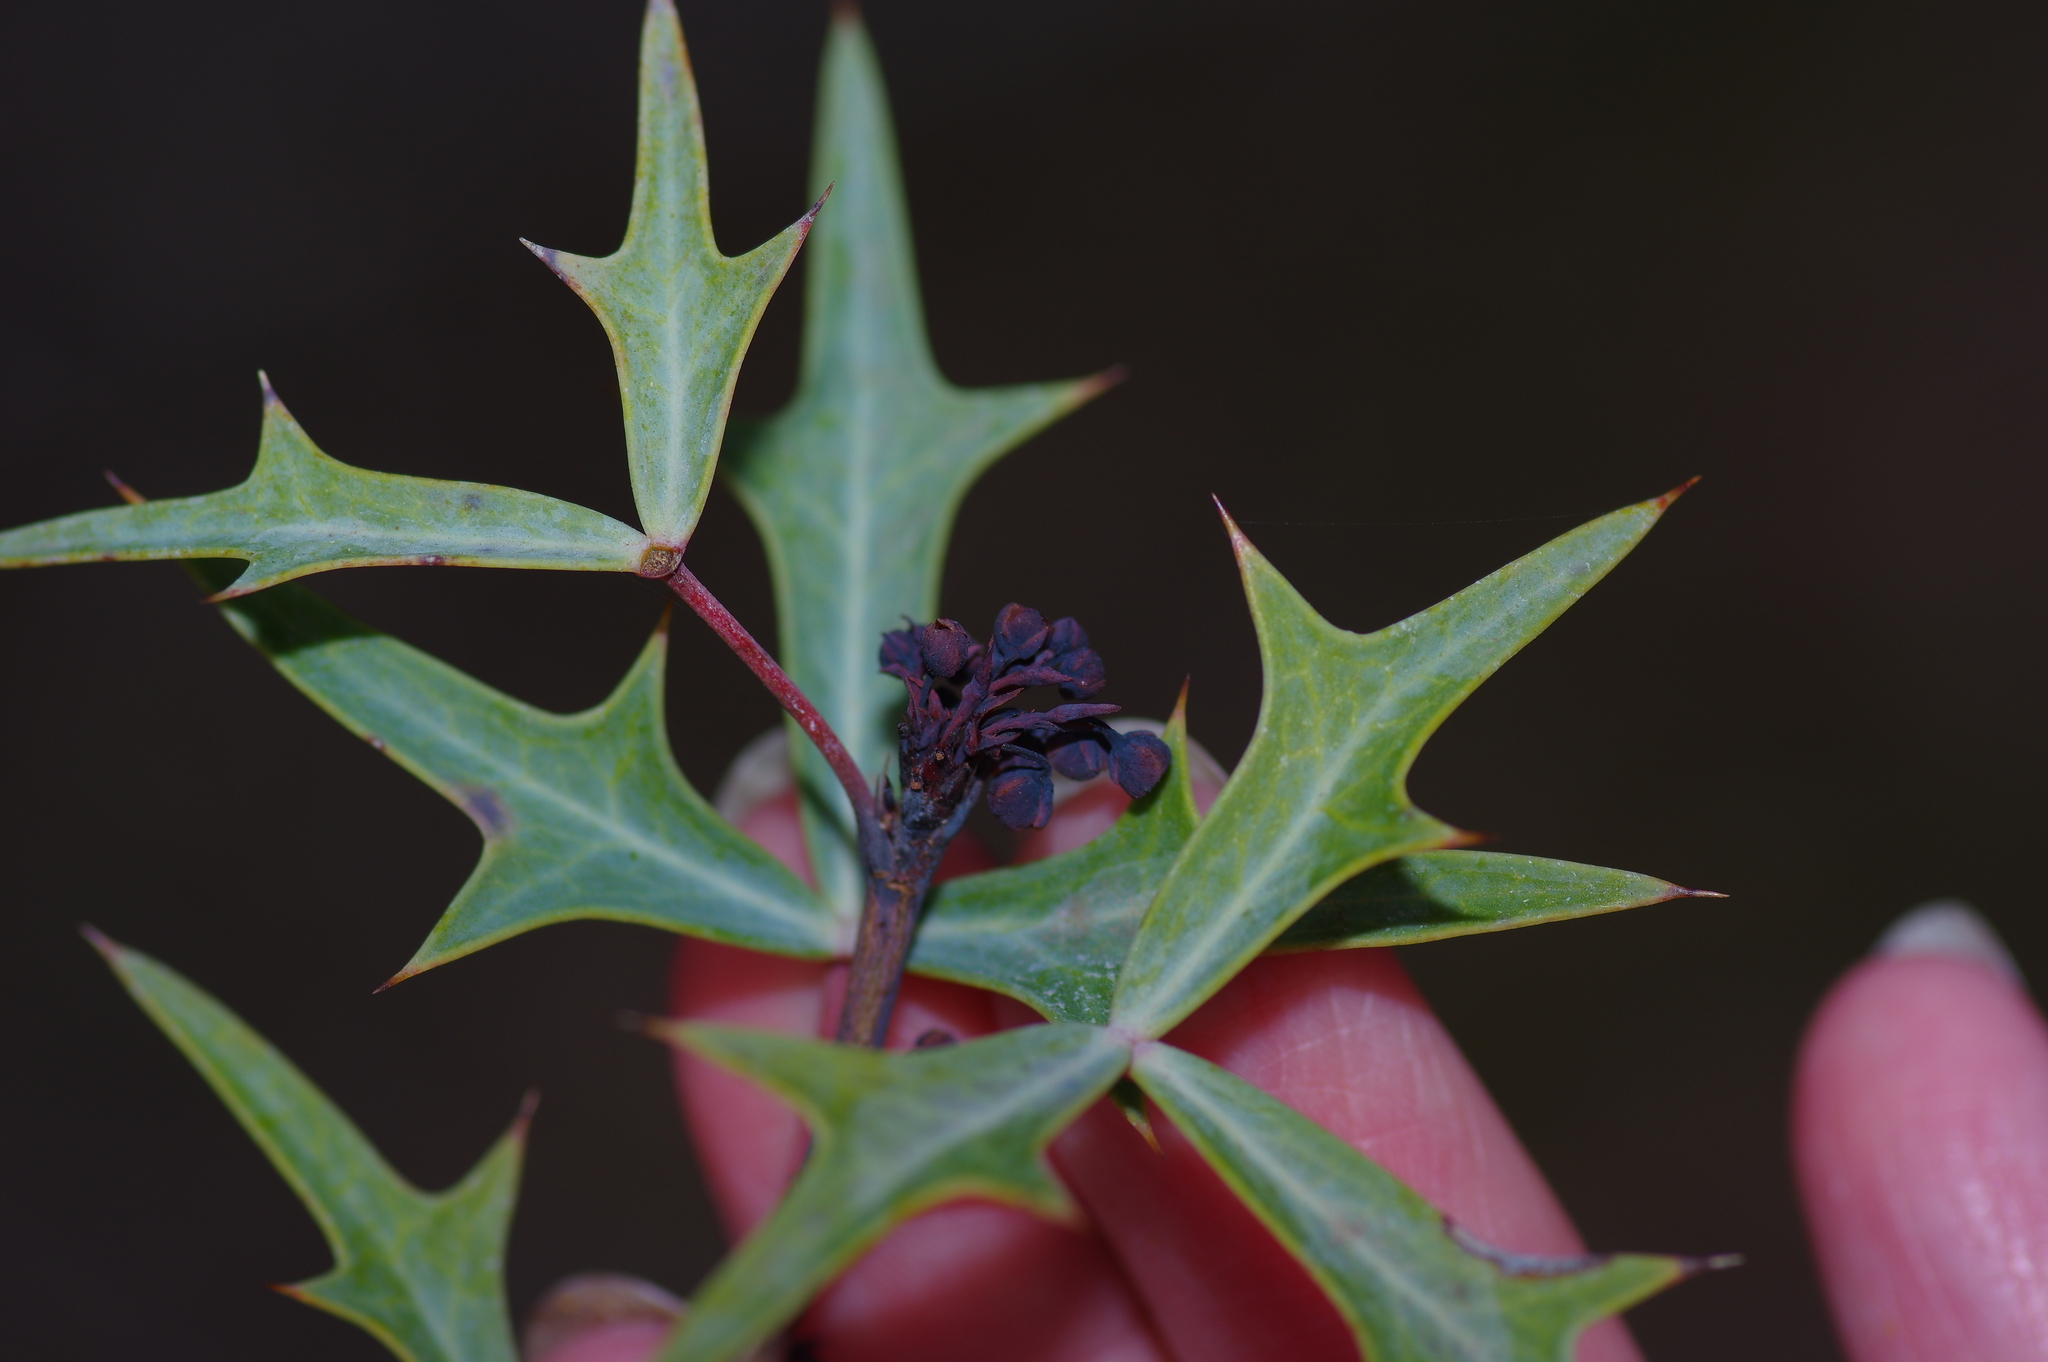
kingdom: Plantae
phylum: Tracheophyta
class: Magnoliopsida
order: Ranunculales
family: Berberidaceae
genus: Alloberberis
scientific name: Alloberberis trifoliolata
